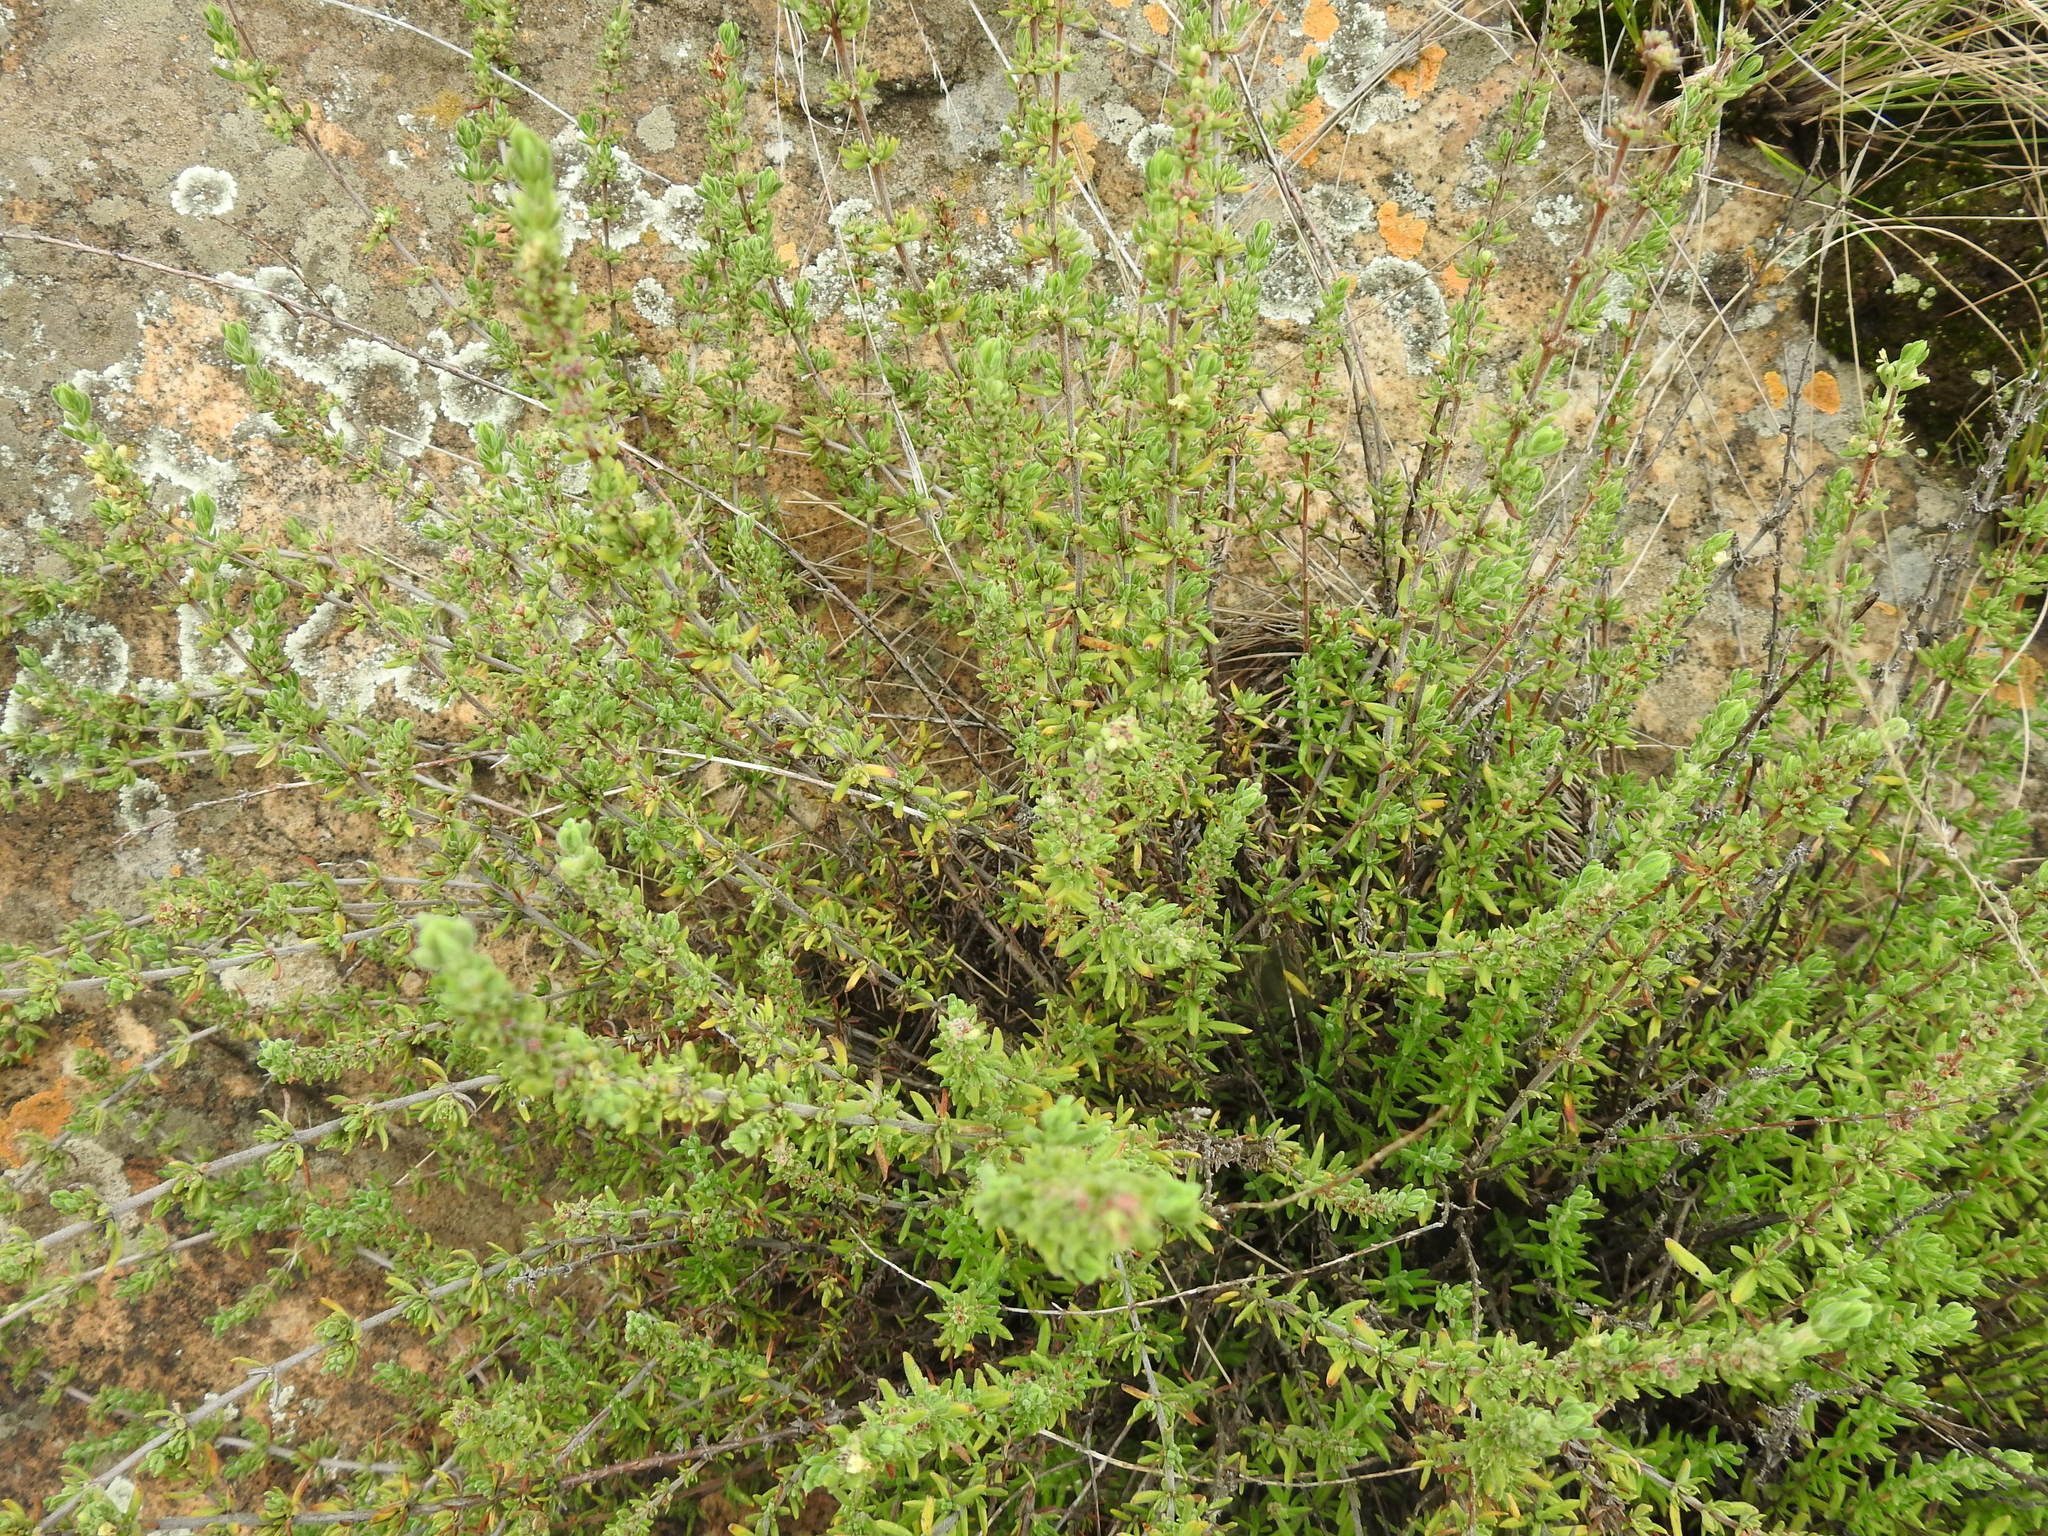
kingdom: Plantae
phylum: Tracheophyta
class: Magnoliopsida
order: Gentianales
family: Rubiaceae
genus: Anthospermum
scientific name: Anthospermum hispidulum
